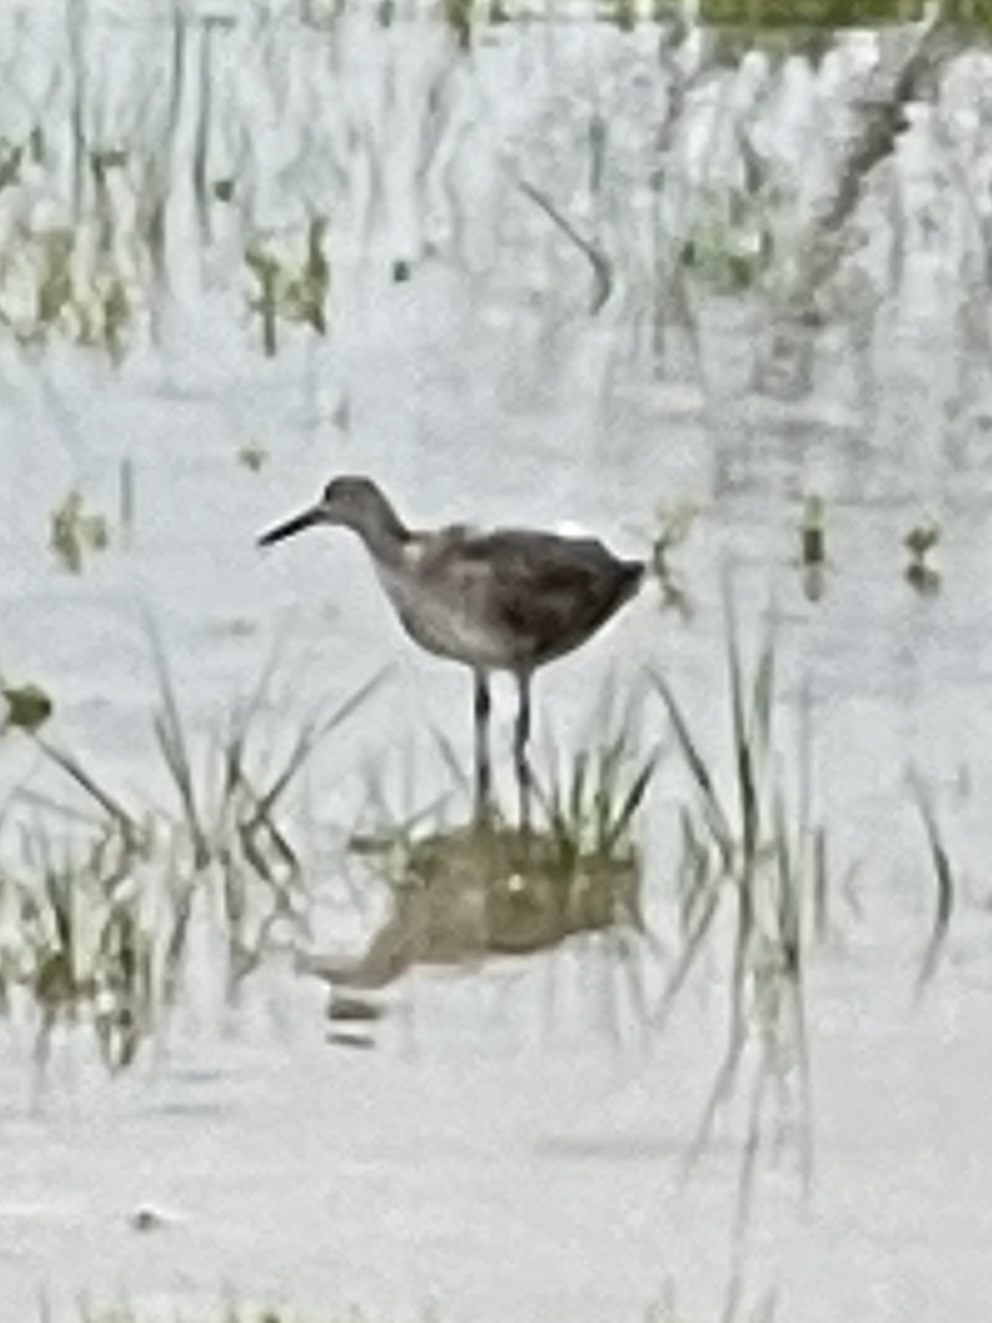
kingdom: Animalia
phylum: Chordata
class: Aves
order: Charadriiformes
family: Scolopacidae
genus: Tringa
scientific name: Tringa semipalmata
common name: Willet
